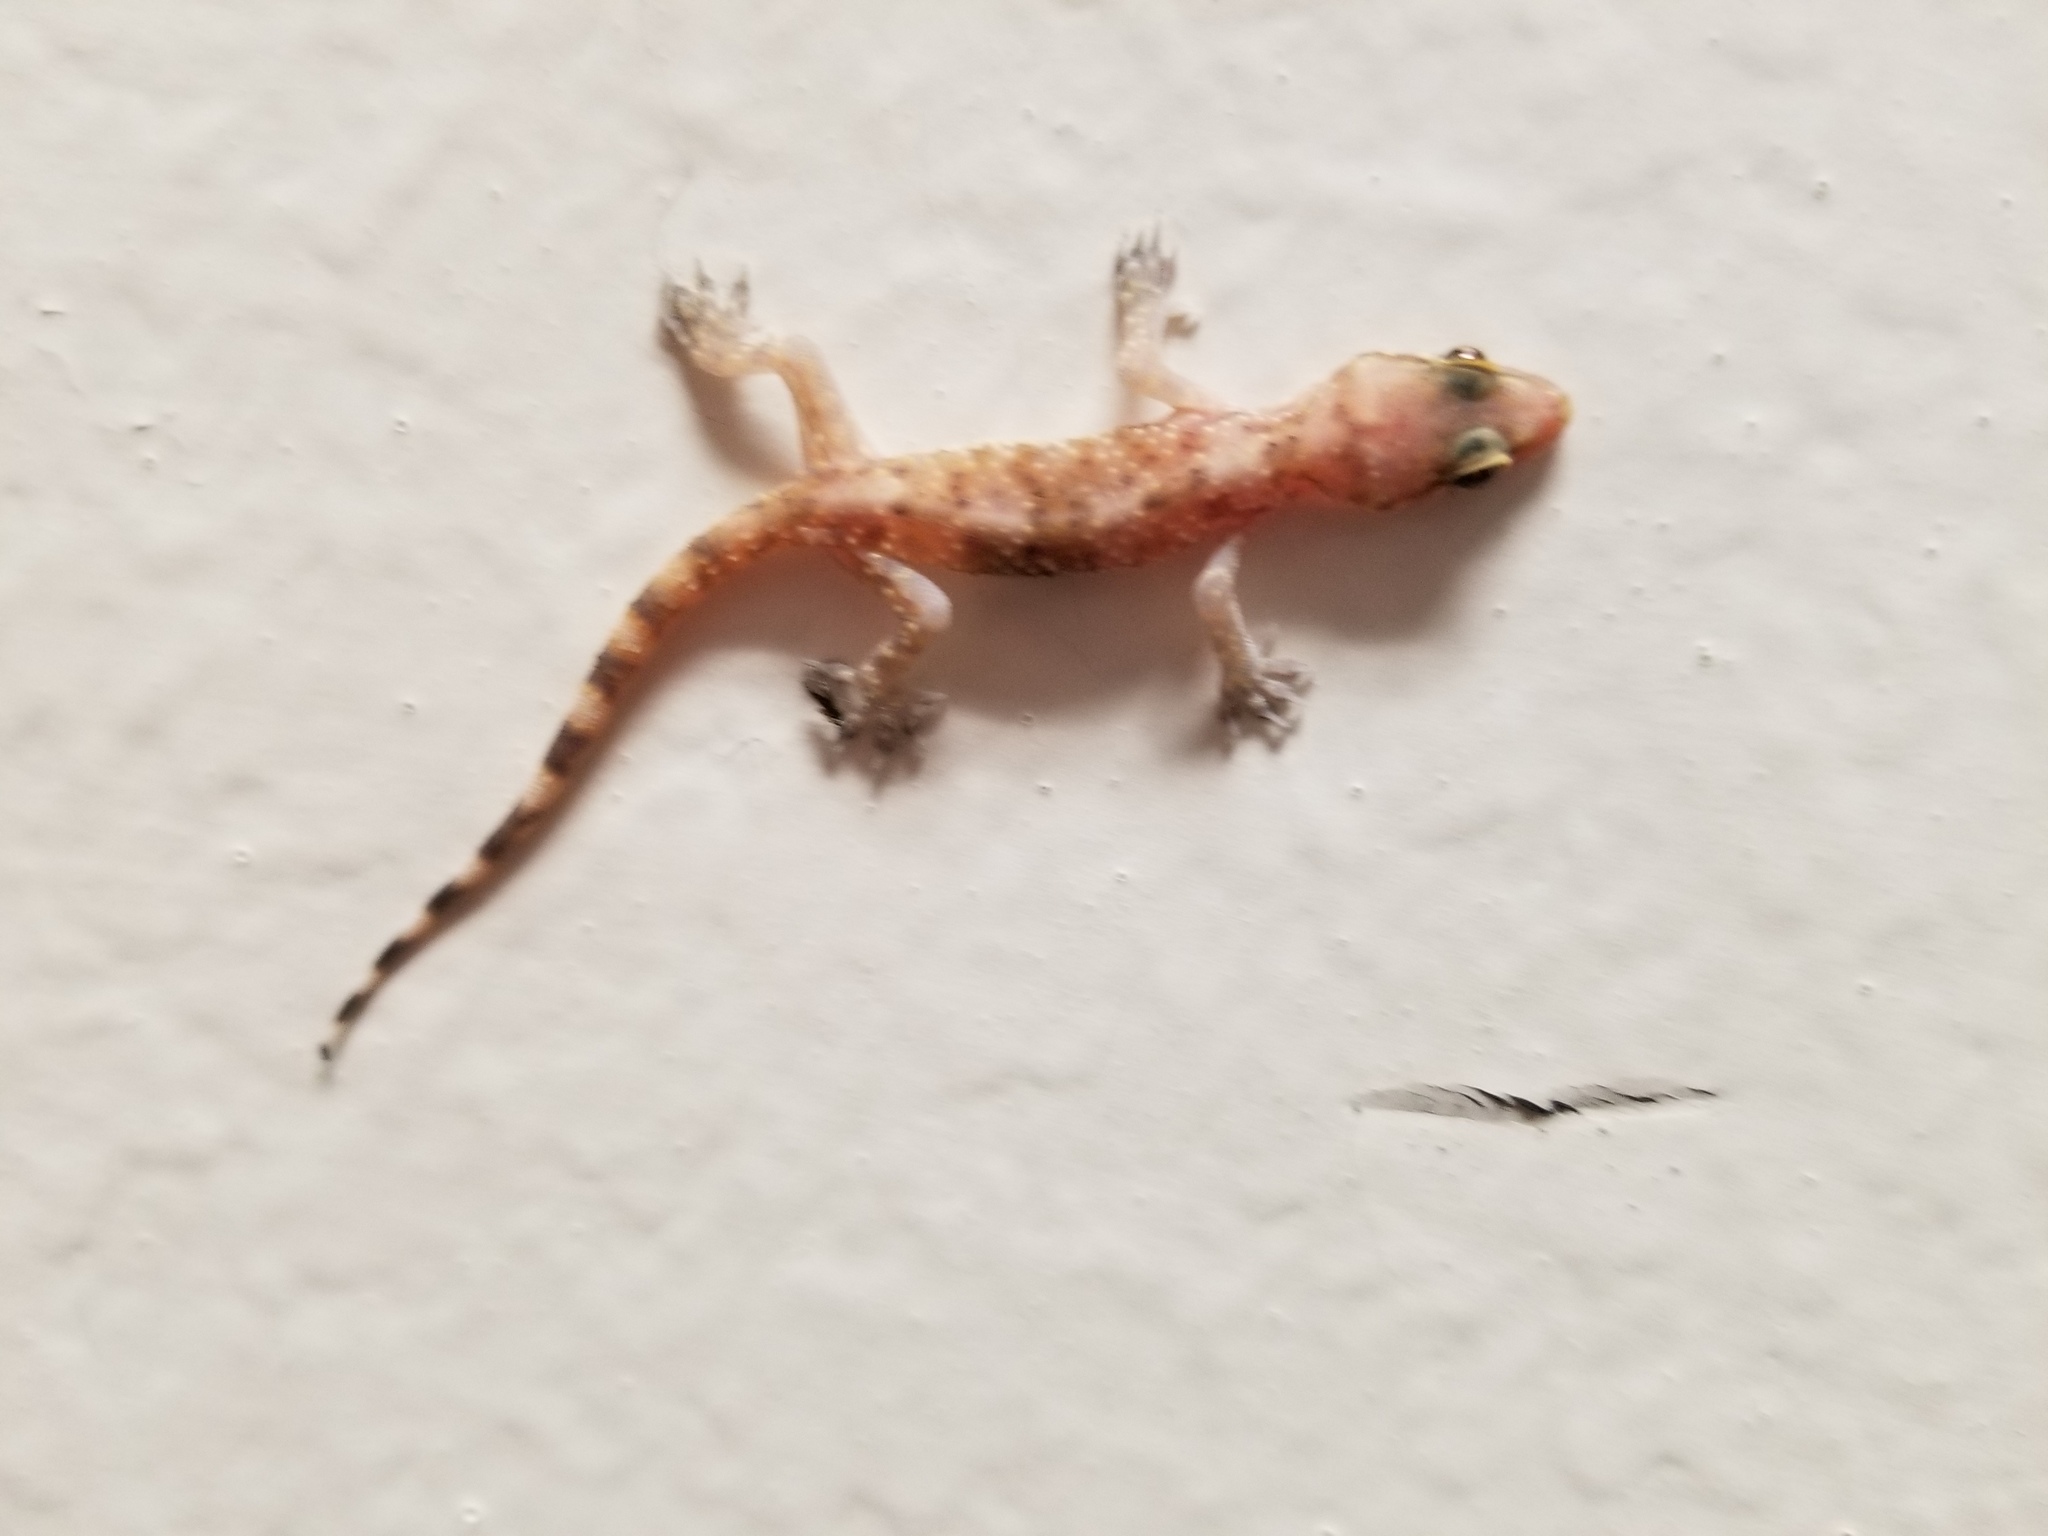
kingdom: Animalia
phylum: Chordata
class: Squamata
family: Gekkonidae
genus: Hemidactylus
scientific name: Hemidactylus turcicus
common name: Turkish gecko
